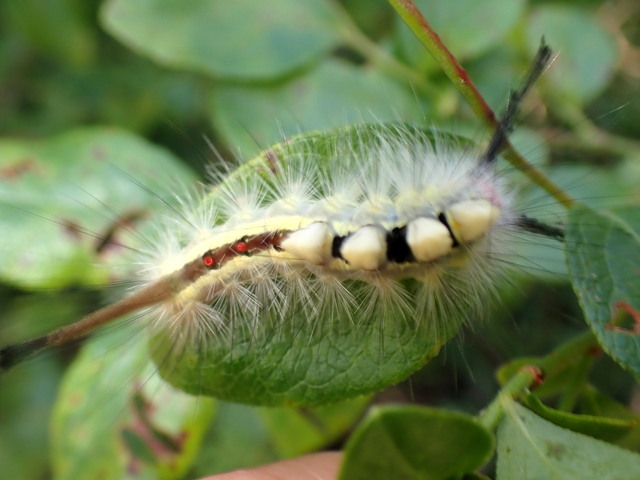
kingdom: Animalia
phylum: Arthropoda
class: Insecta
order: Lepidoptera
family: Erebidae
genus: Orgyia
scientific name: Orgyia leucostigma
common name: White-marked tussock moth
